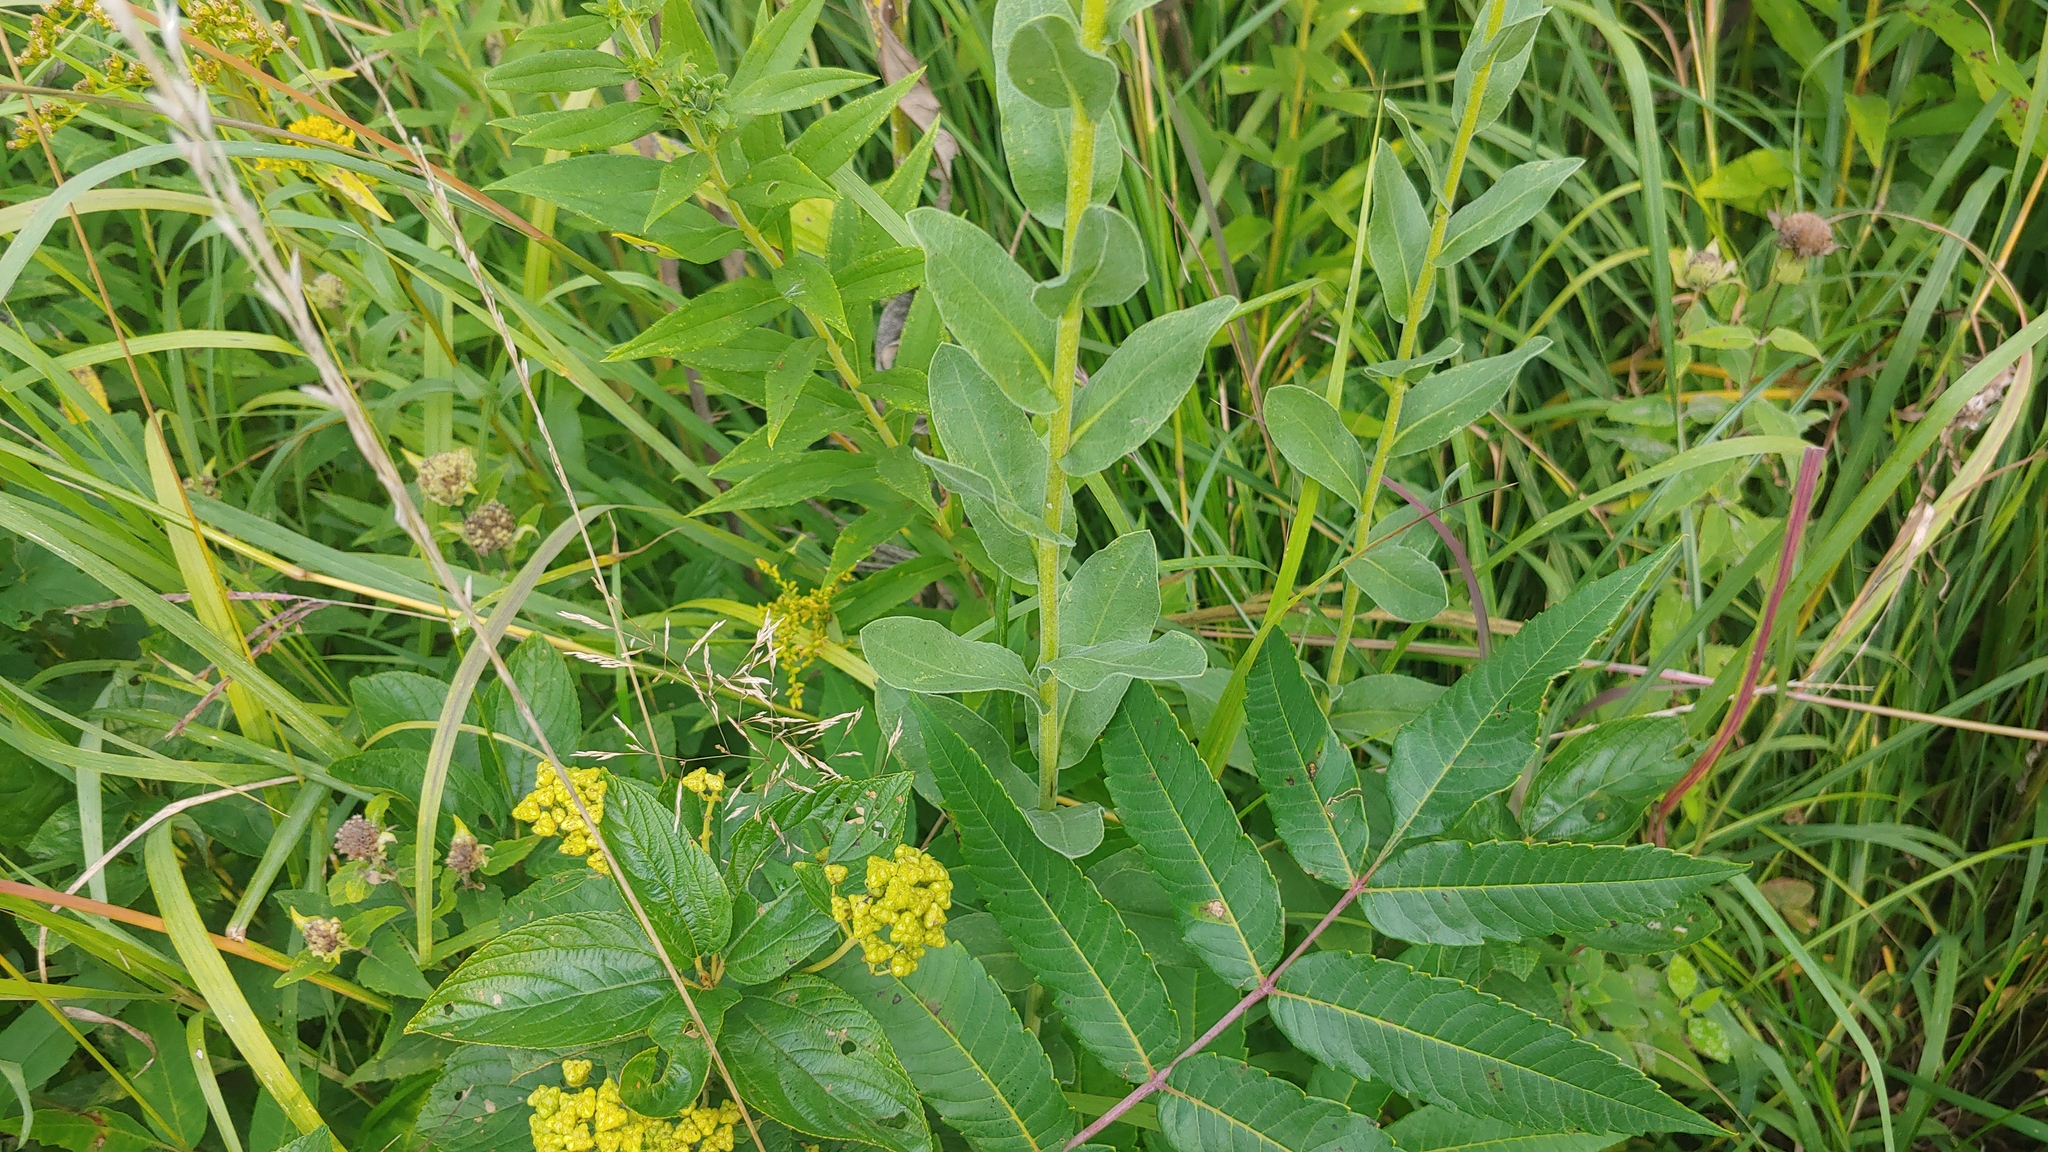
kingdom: Plantae
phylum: Tracheophyta
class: Magnoliopsida
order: Asterales
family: Asteraceae
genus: Solidago
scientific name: Solidago rigida
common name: Rigid goldenrod
